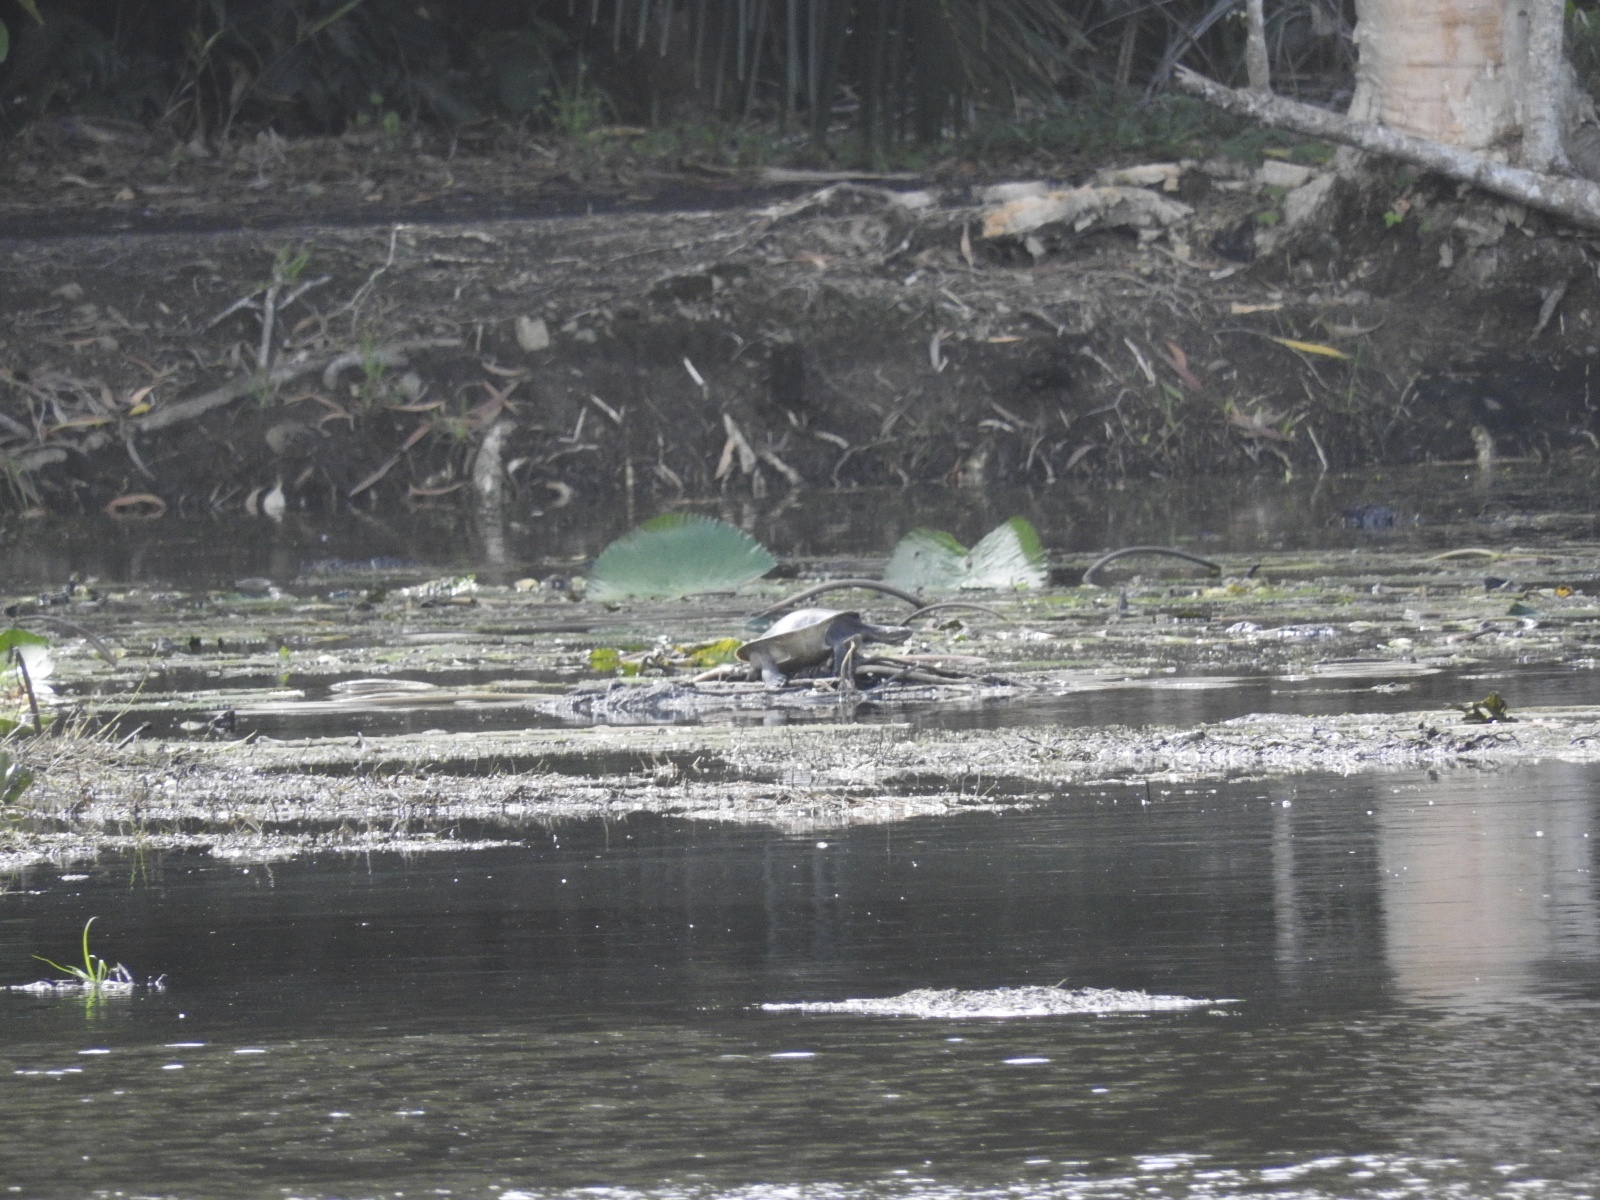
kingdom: Animalia
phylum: Chordata
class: Testudines
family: Chelidae
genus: Emydura
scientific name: Emydura macquarii
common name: Murray river turtle
